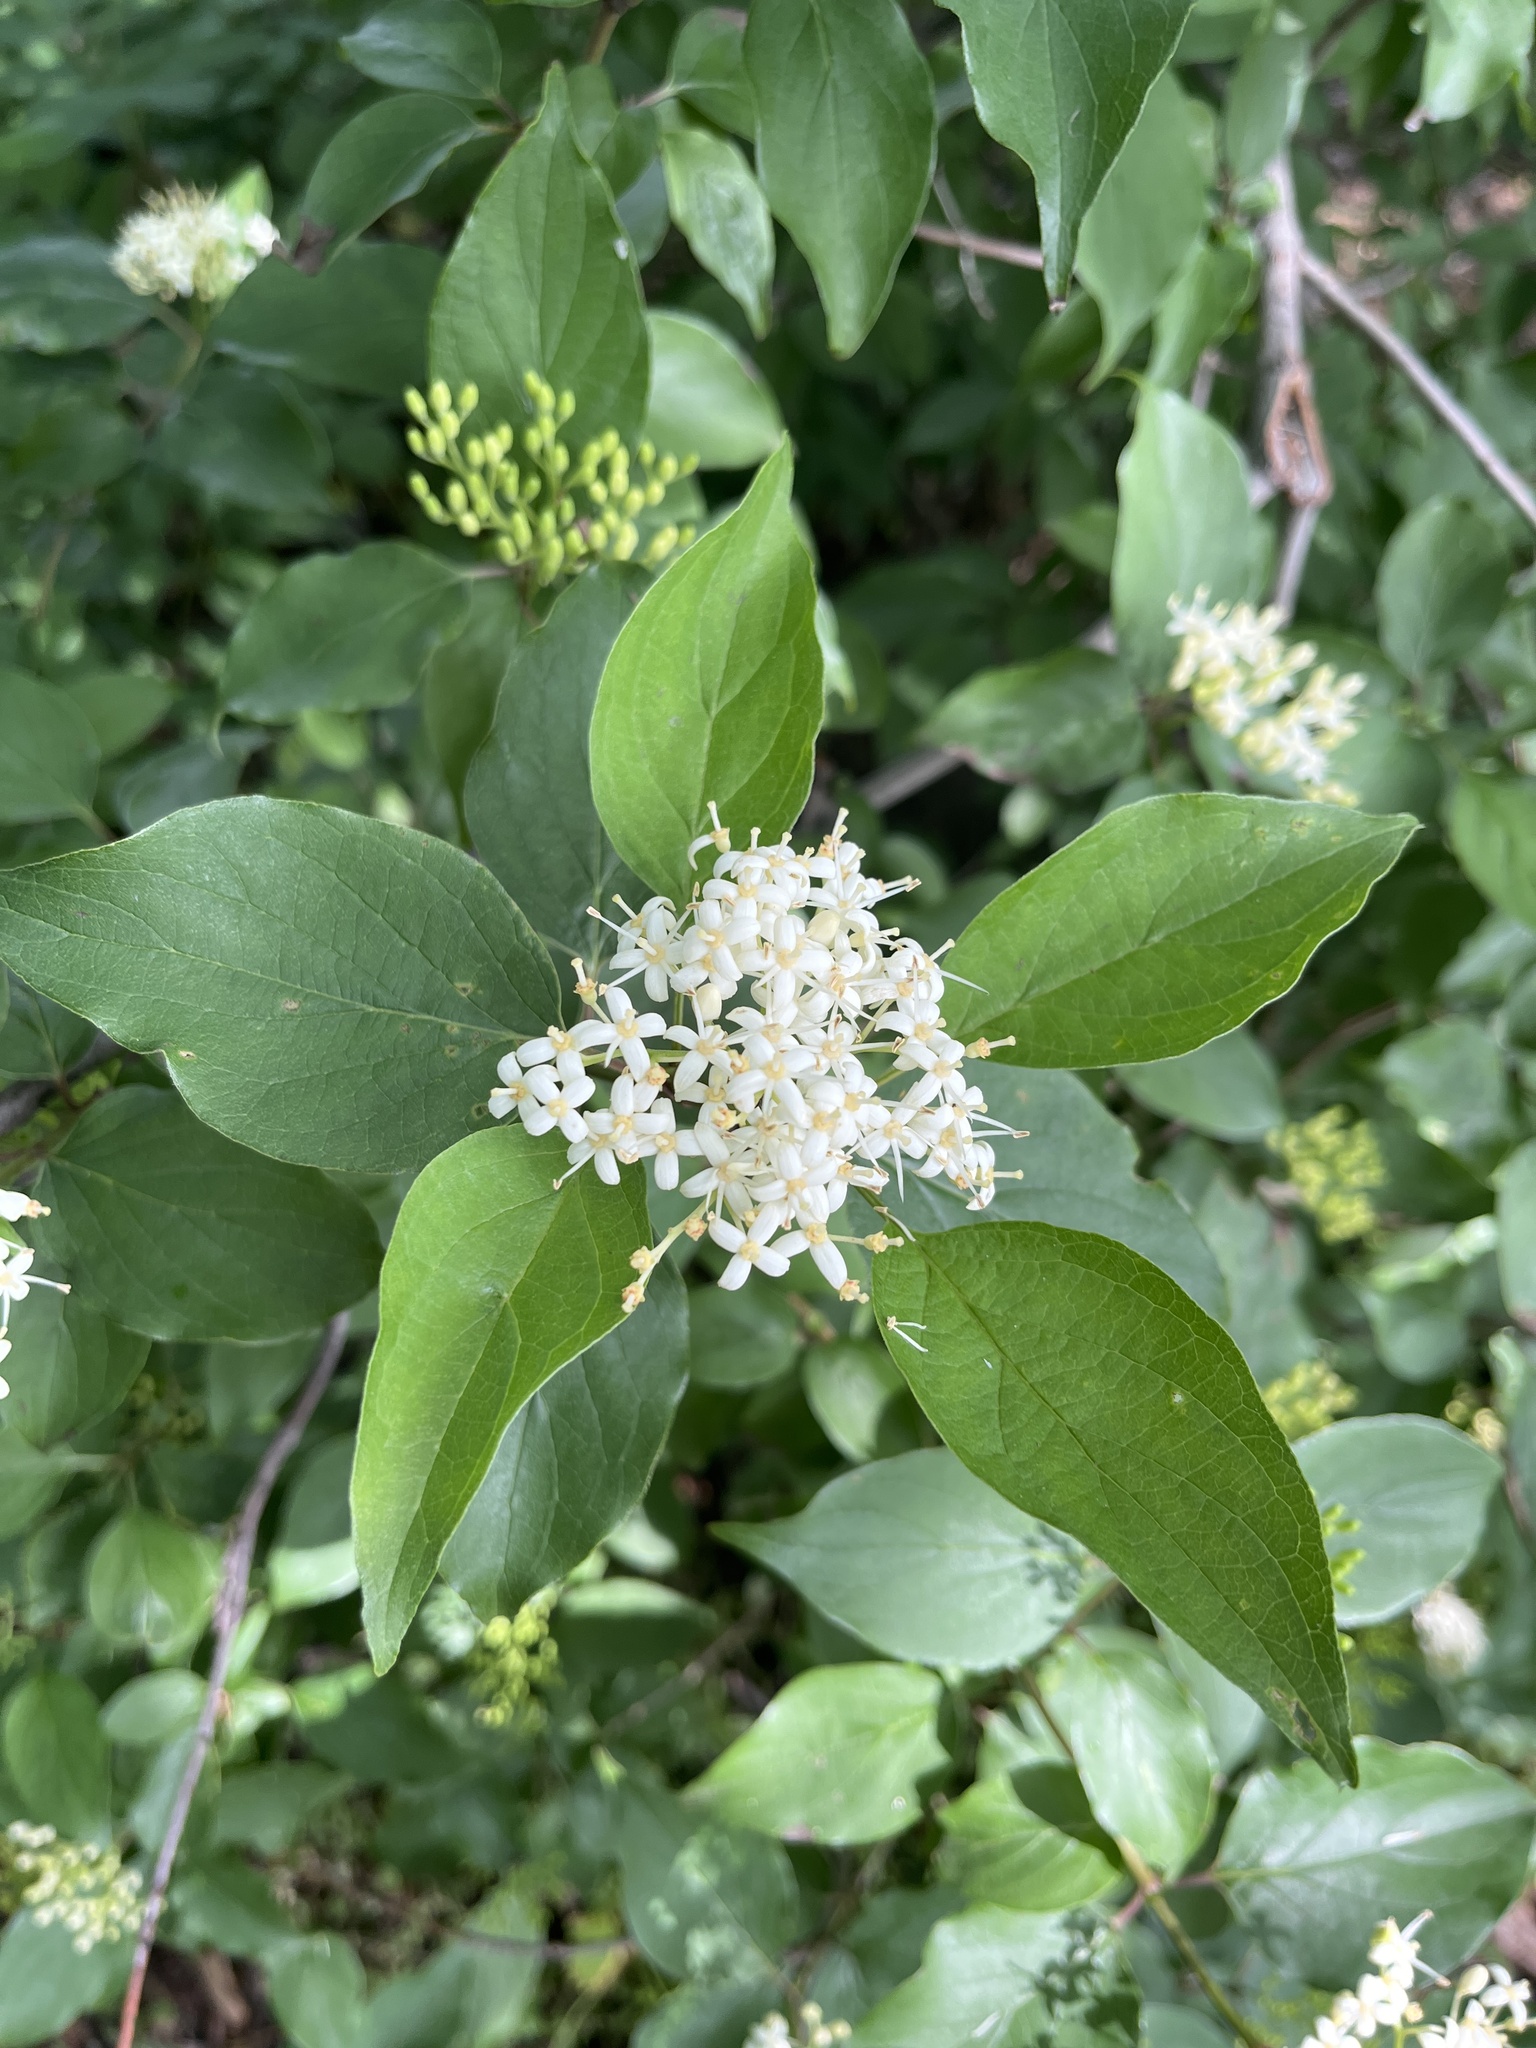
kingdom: Plantae
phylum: Tracheophyta
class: Magnoliopsida
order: Cornales
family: Cornaceae
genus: Cornus
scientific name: Cornus drummondii
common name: Rough-leaf dogwood
